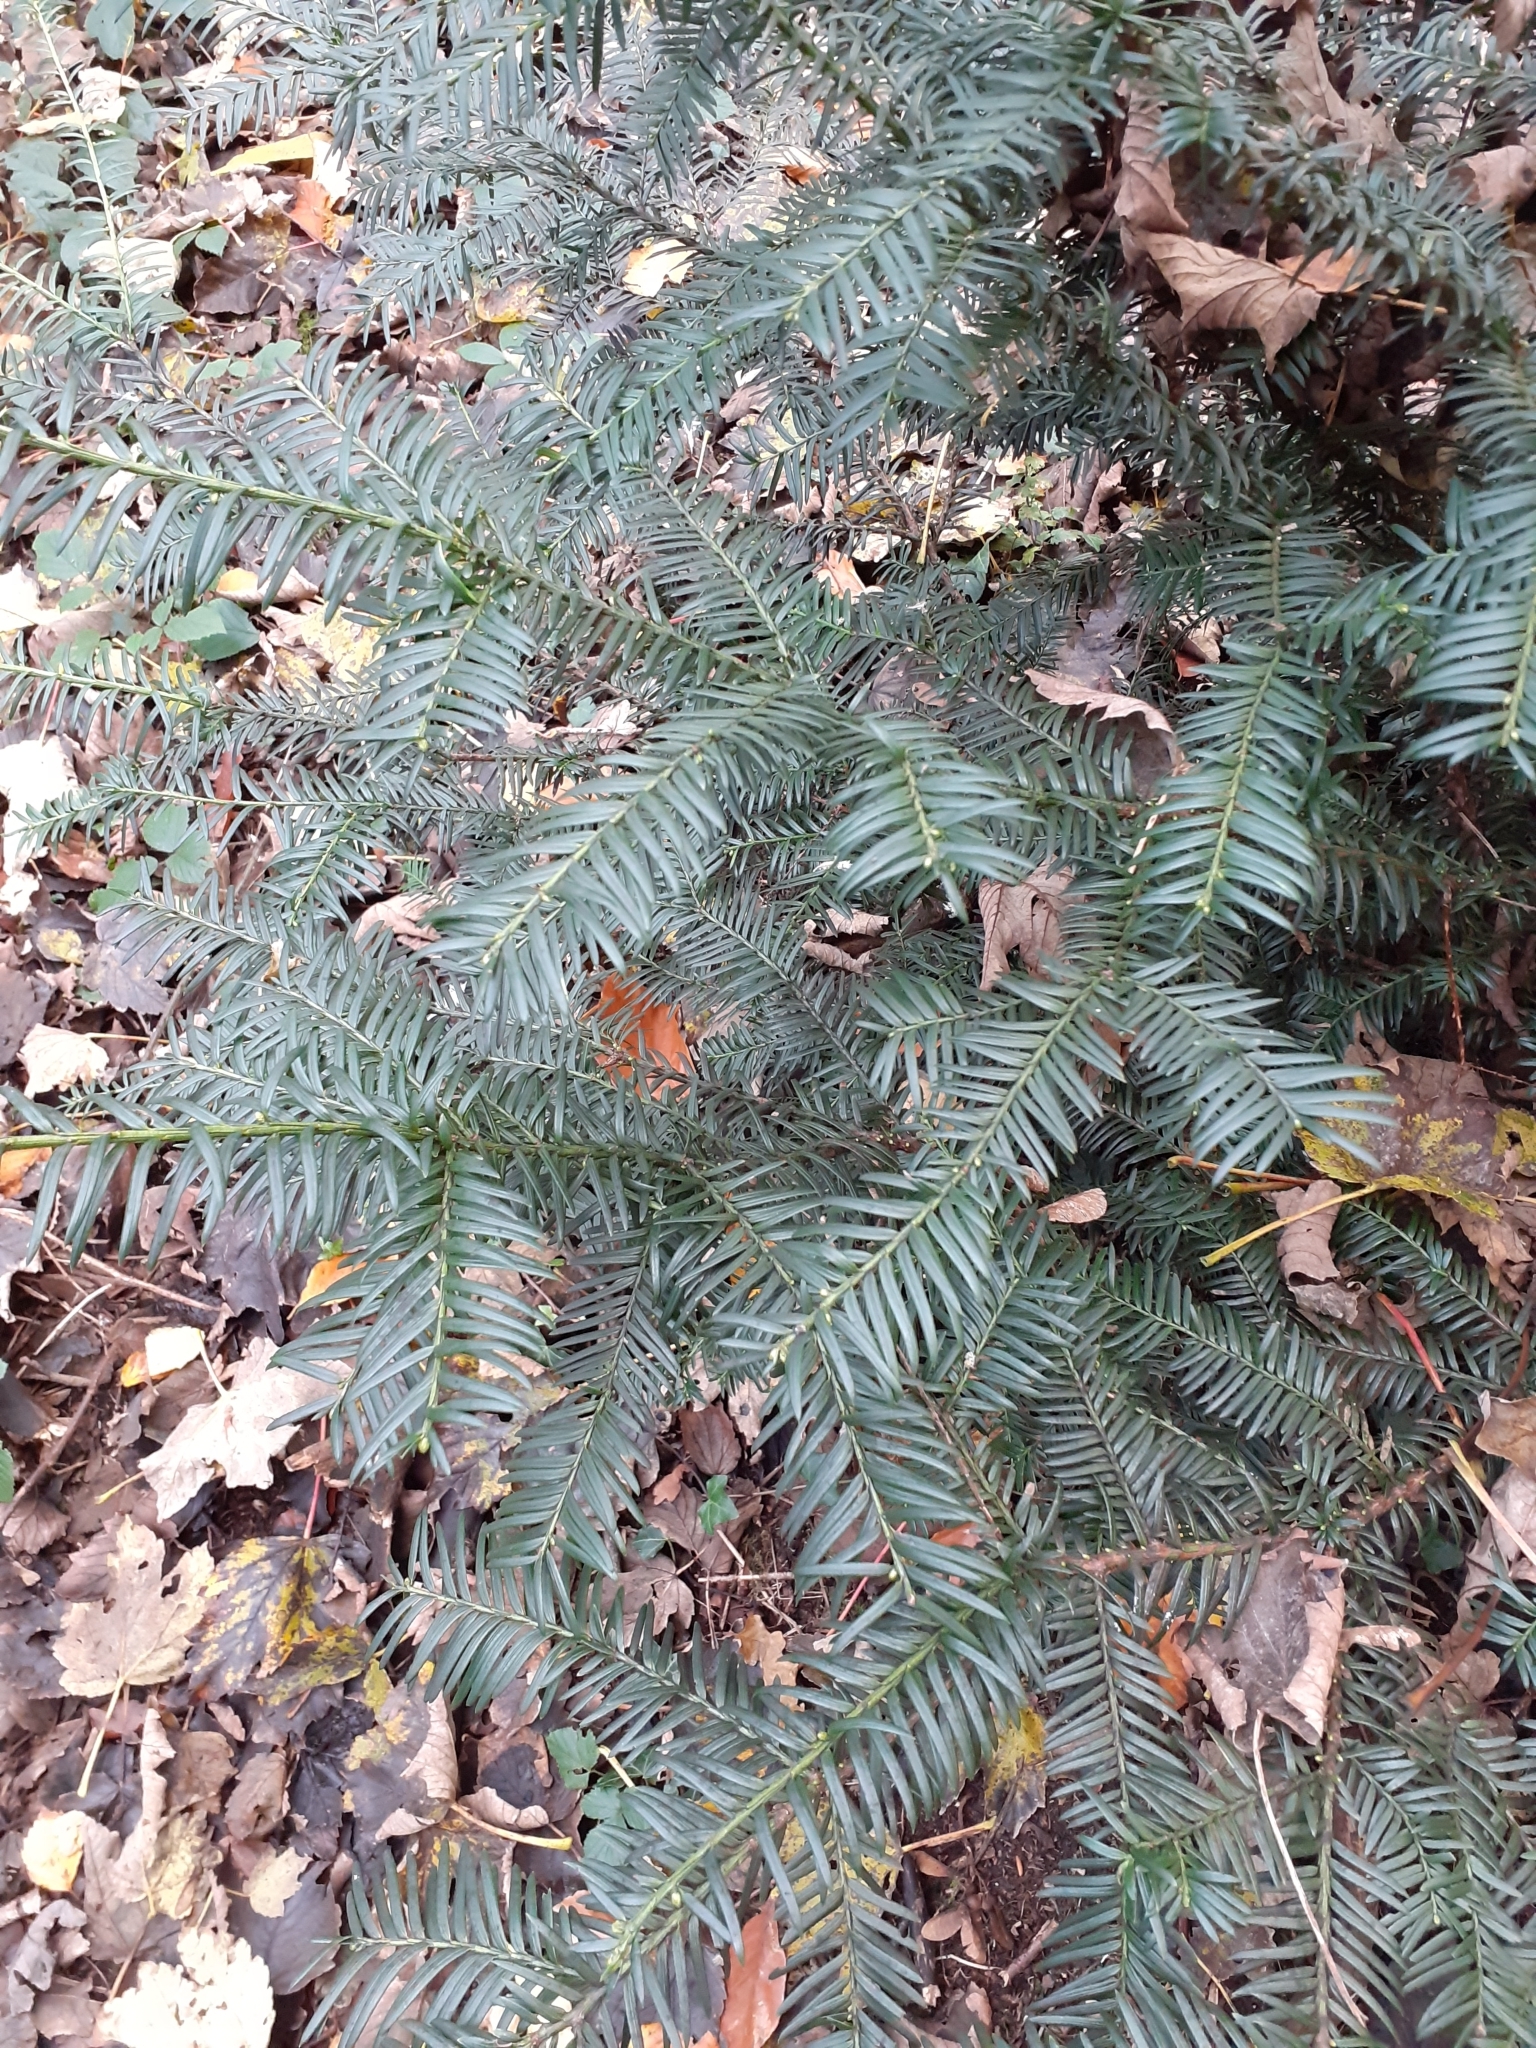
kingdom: Plantae
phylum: Tracheophyta
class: Pinopsida
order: Pinales
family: Taxaceae
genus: Taxus
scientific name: Taxus baccata
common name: Yew
